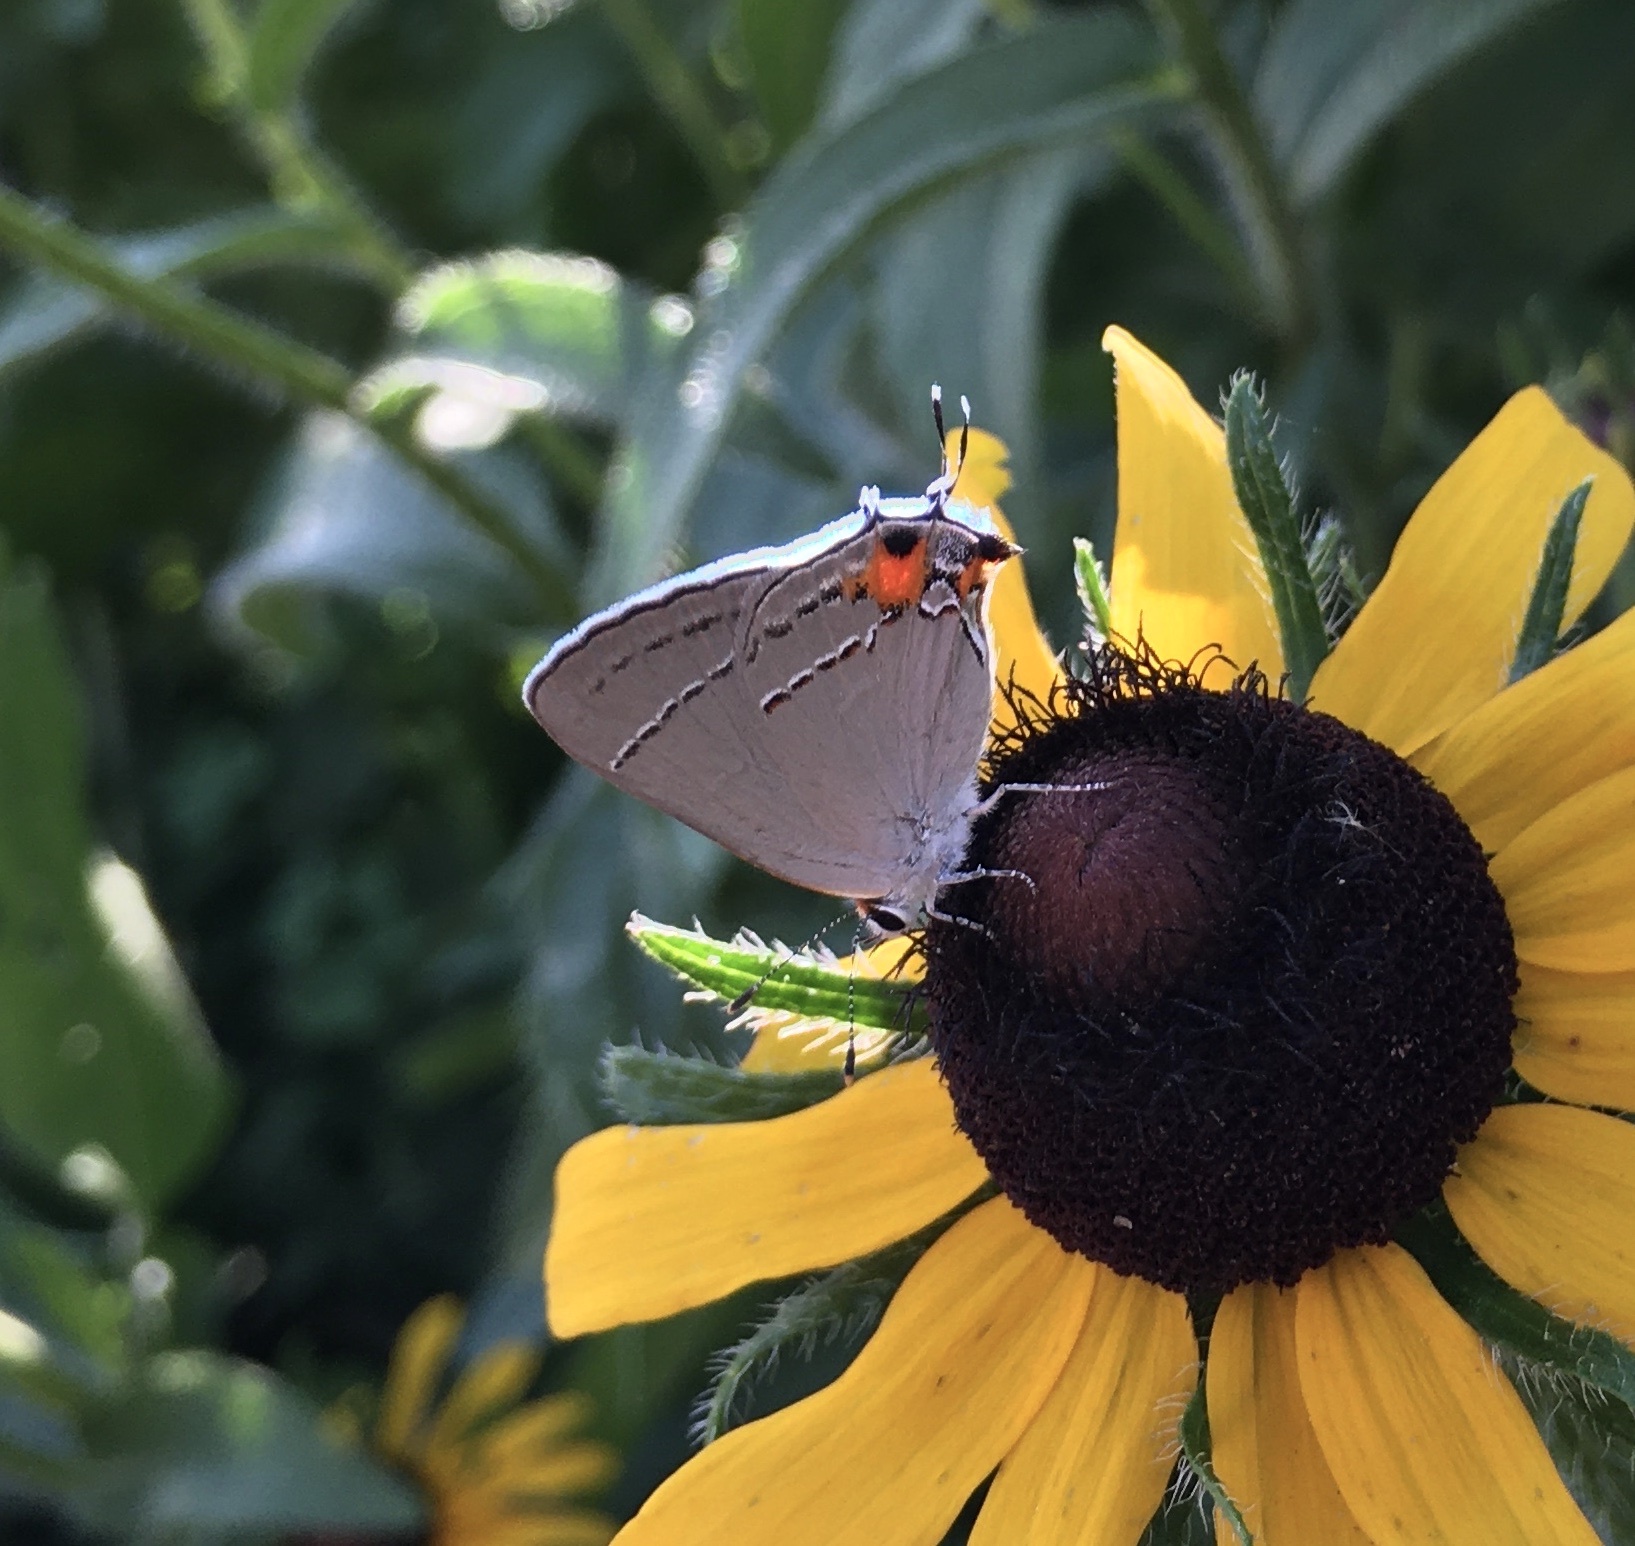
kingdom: Animalia
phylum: Arthropoda
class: Insecta
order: Lepidoptera
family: Lycaenidae
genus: Strymon
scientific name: Strymon melinus
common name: Gray hairstreak
